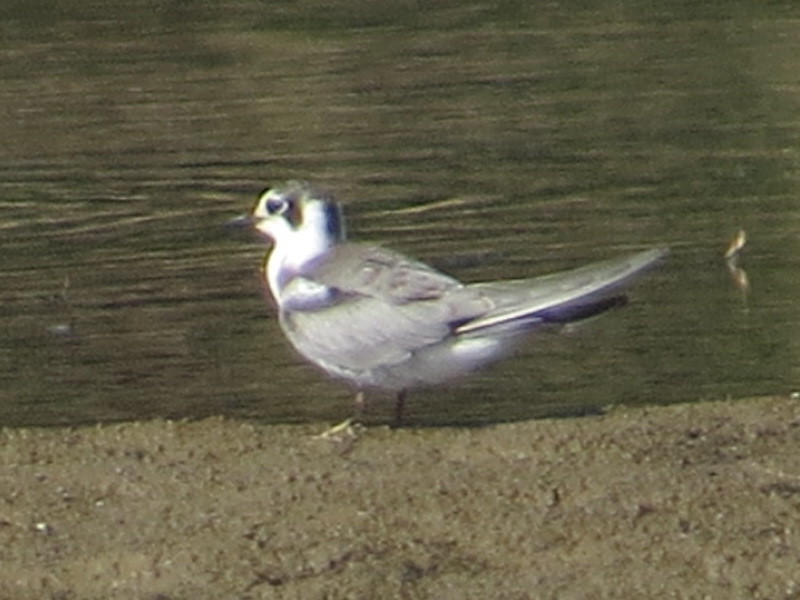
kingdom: Animalia
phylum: Chordata
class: Aves
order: Charadriiformes
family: Laridae
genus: Chlidonias
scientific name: Chlidonias niger
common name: Black tern
